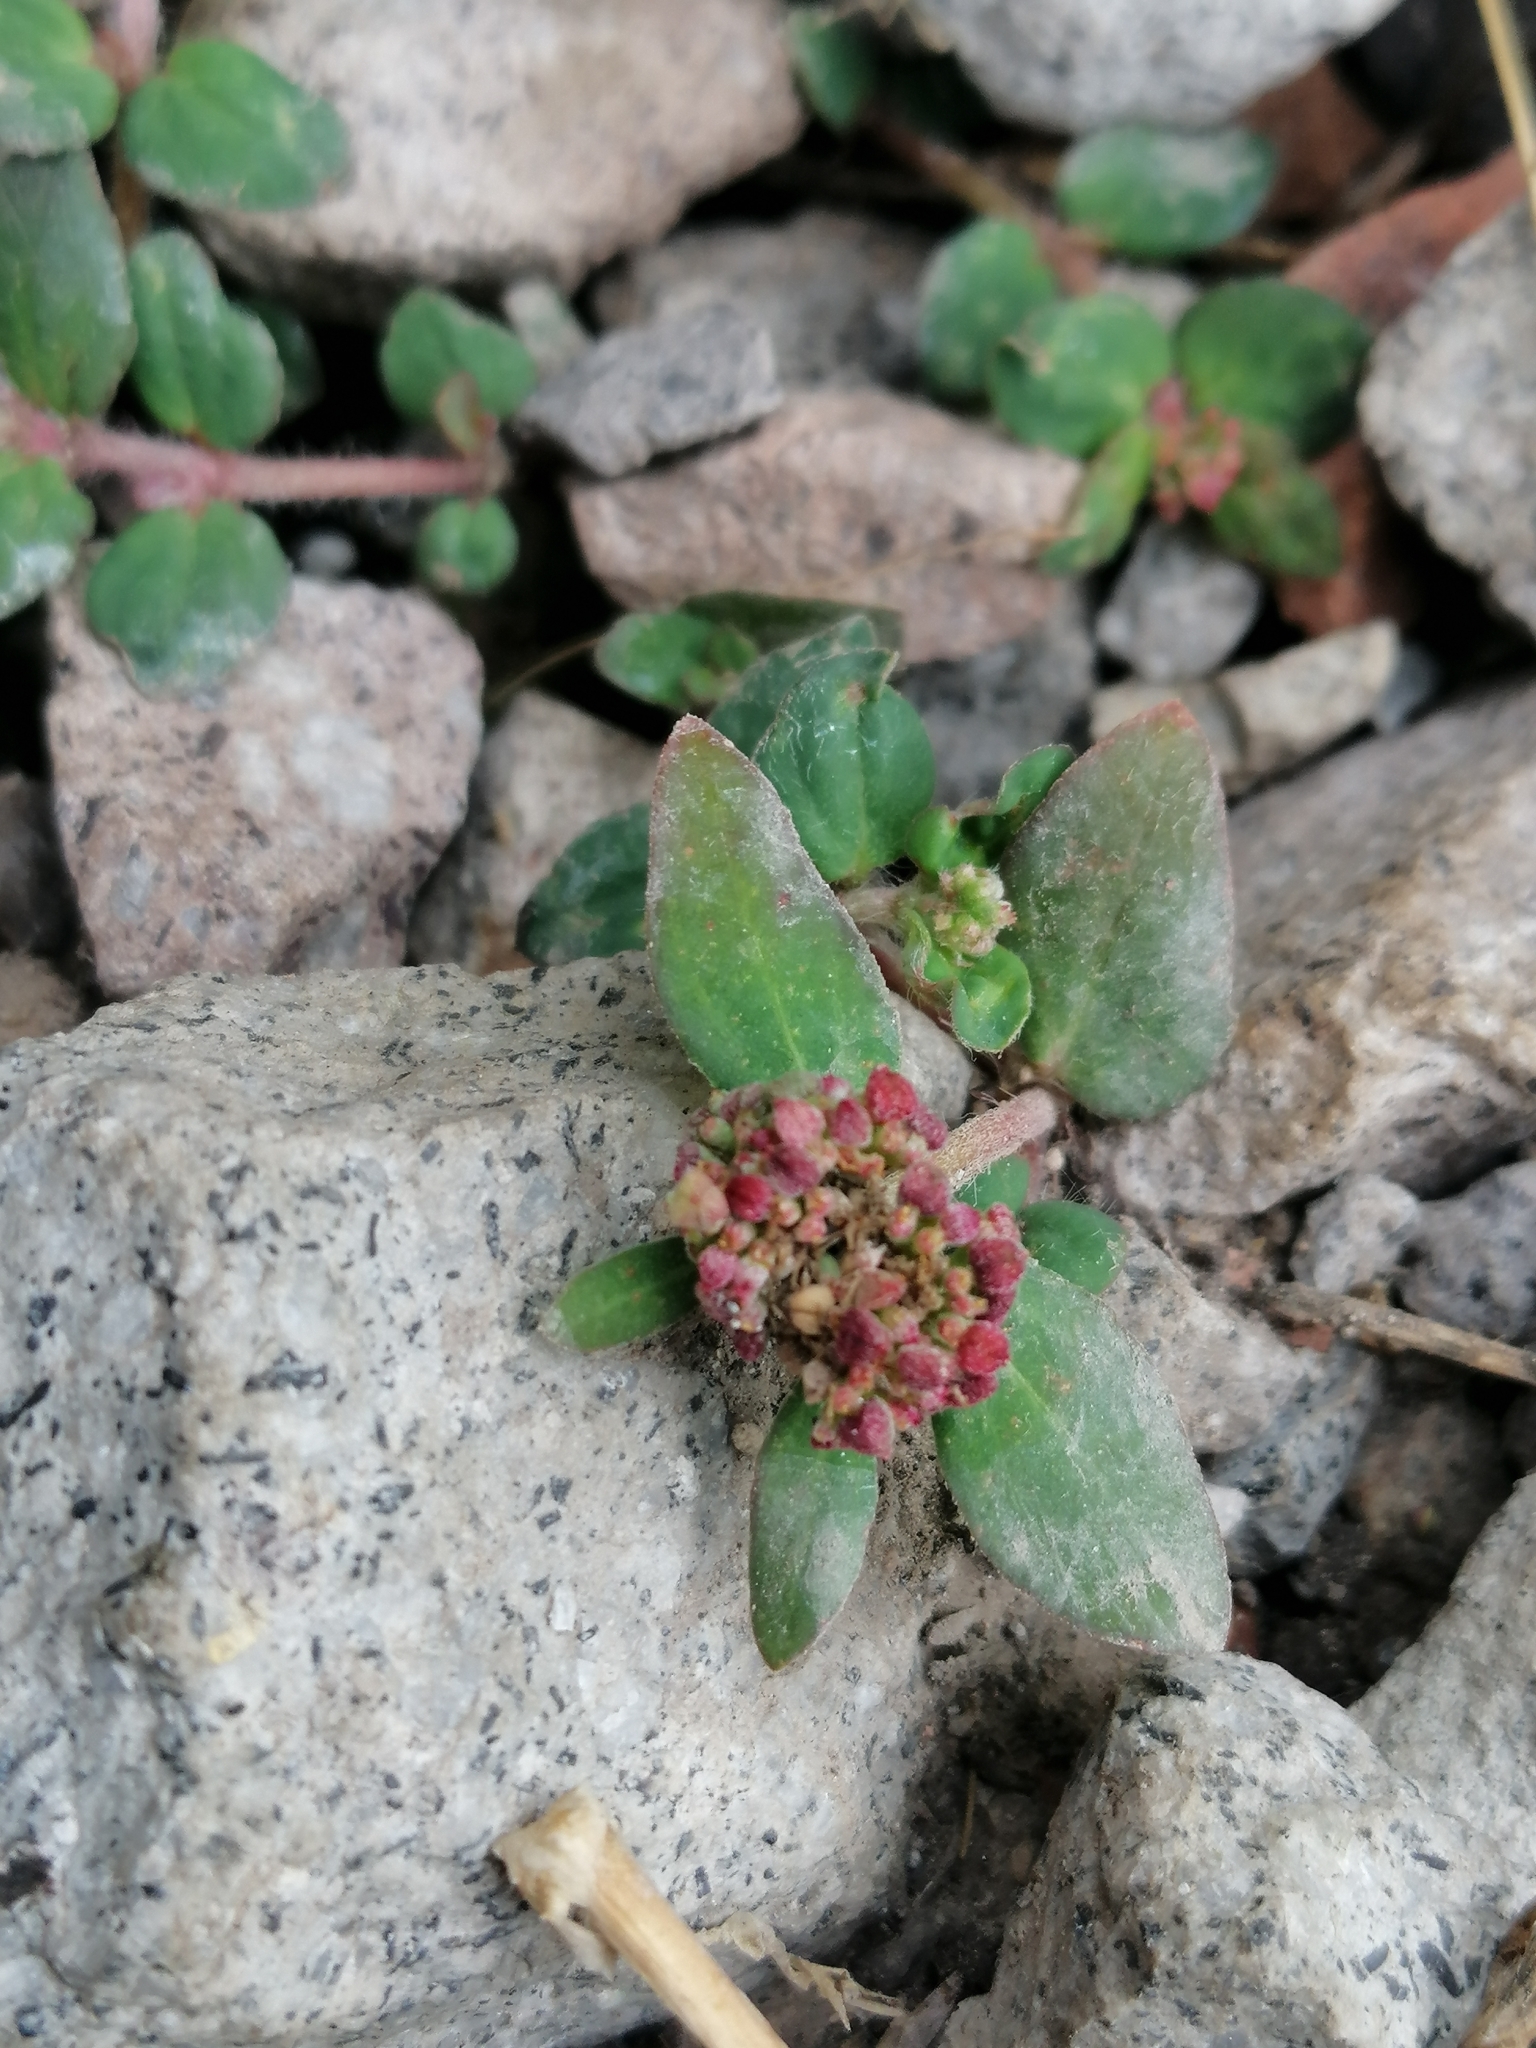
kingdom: Plantae
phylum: Tracheophyta
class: Magnoliopsida
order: Malpighiales
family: Euphorbiaceae
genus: Euphorbia
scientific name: Euphorbia ophthalmica
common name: Florida hammock sandmat
